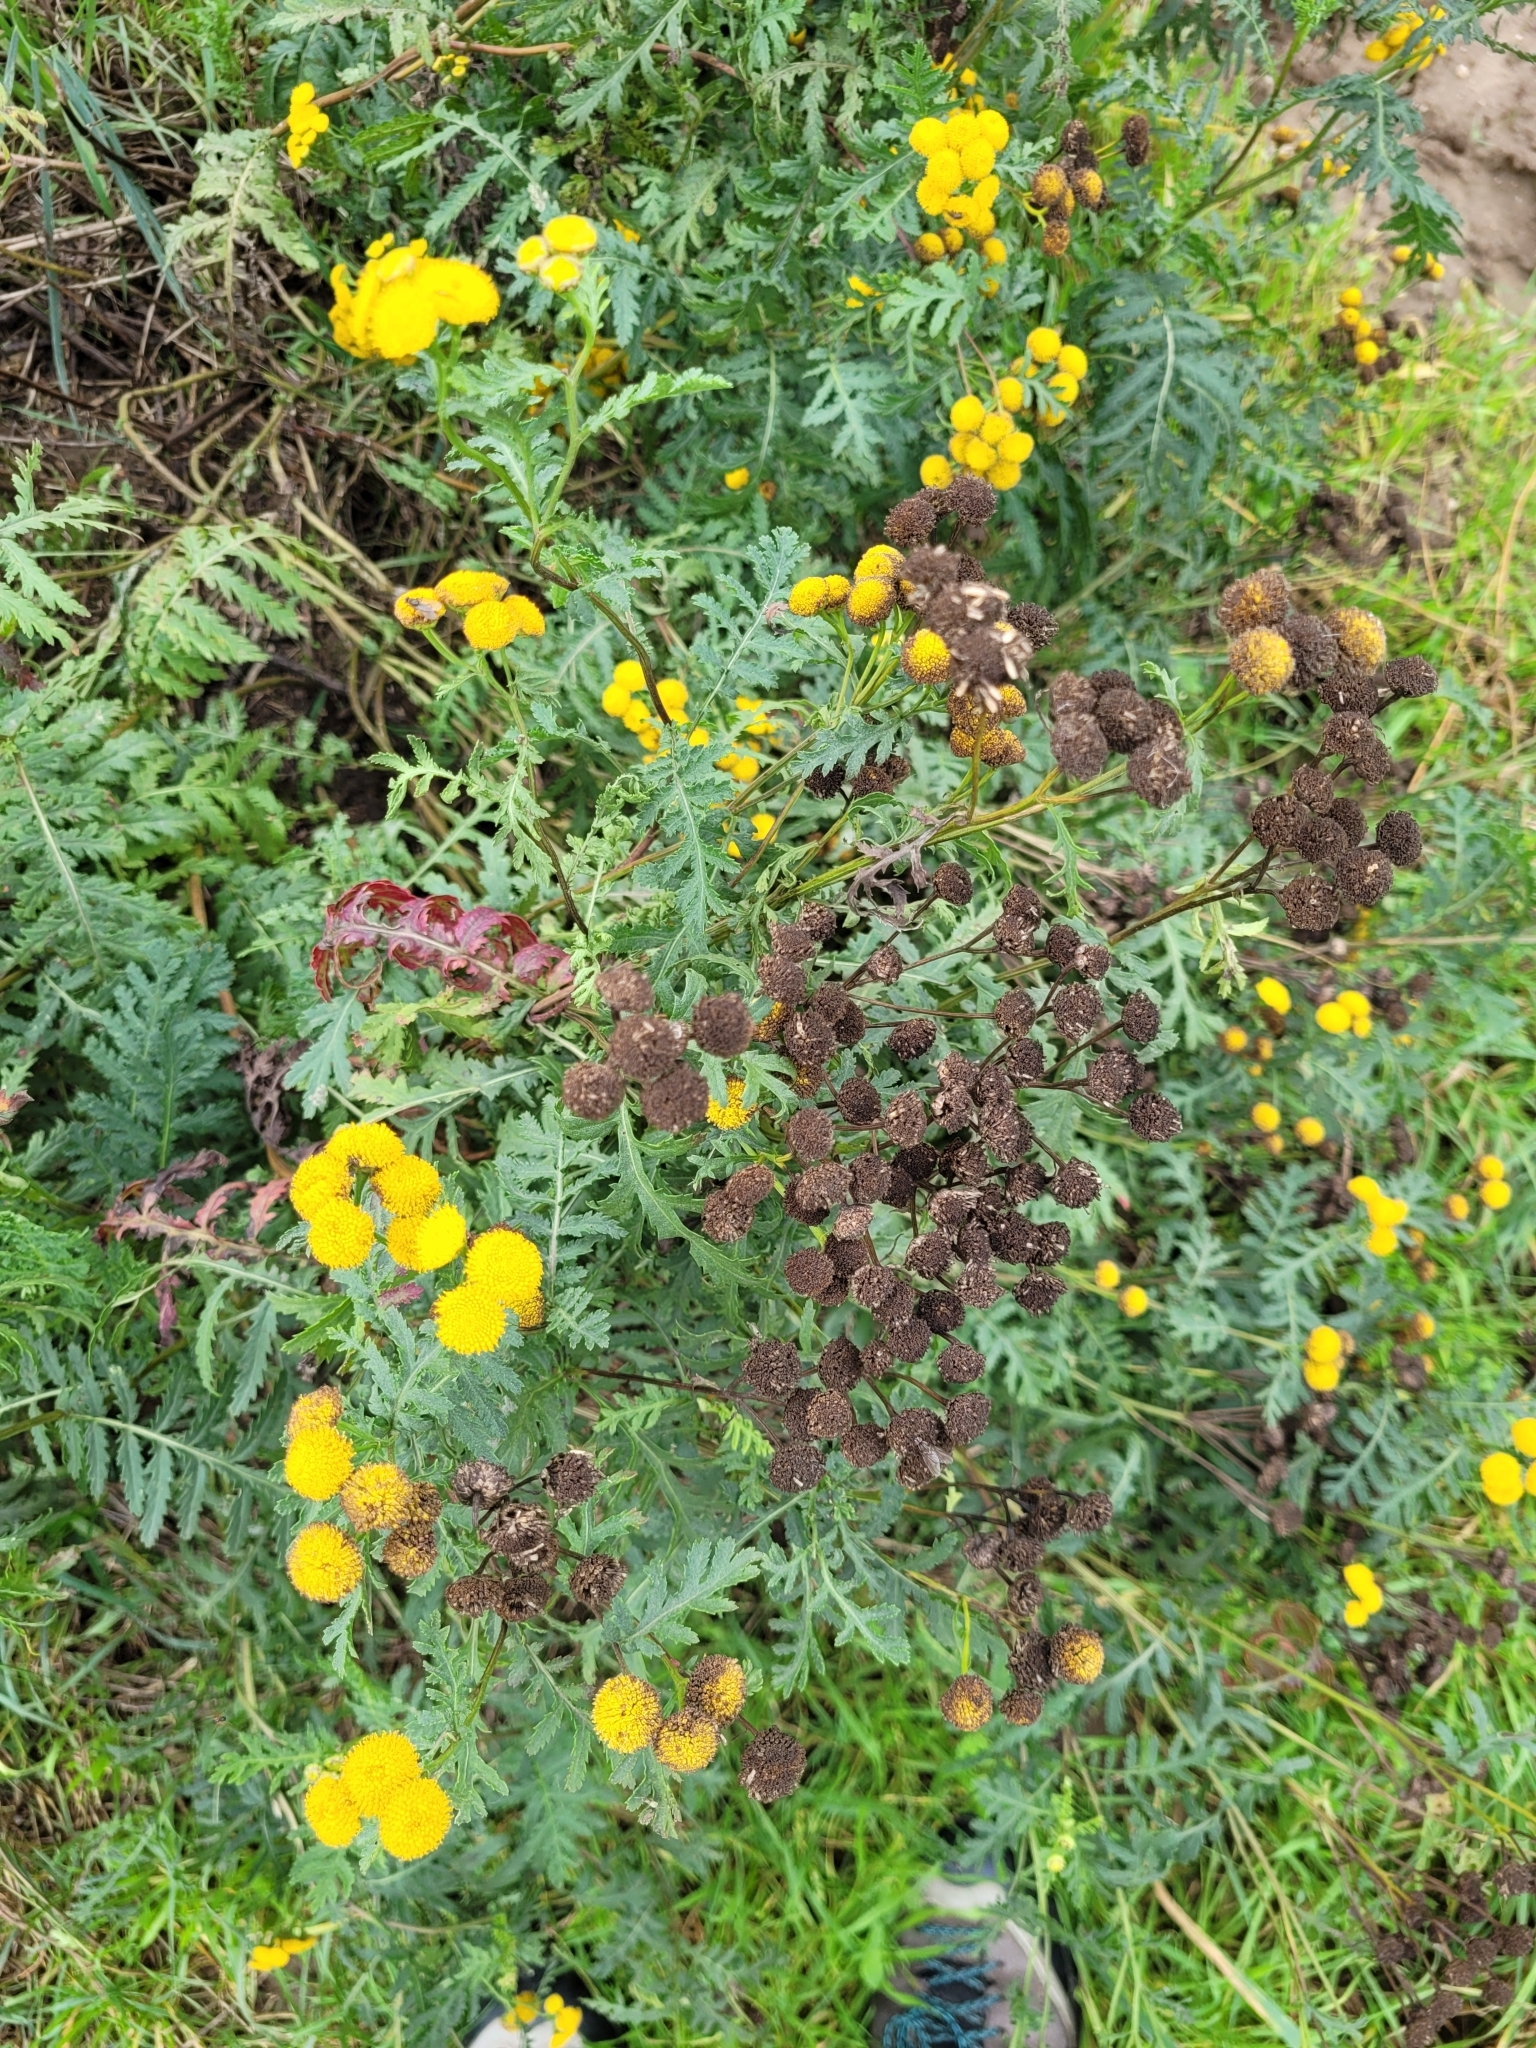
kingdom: Plantae
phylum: Tracheophyta
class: Magnoliopsida
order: Asterales
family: Asteraceae
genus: Tanacetum
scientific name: Tanacetum vulgare
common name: Common tansy
